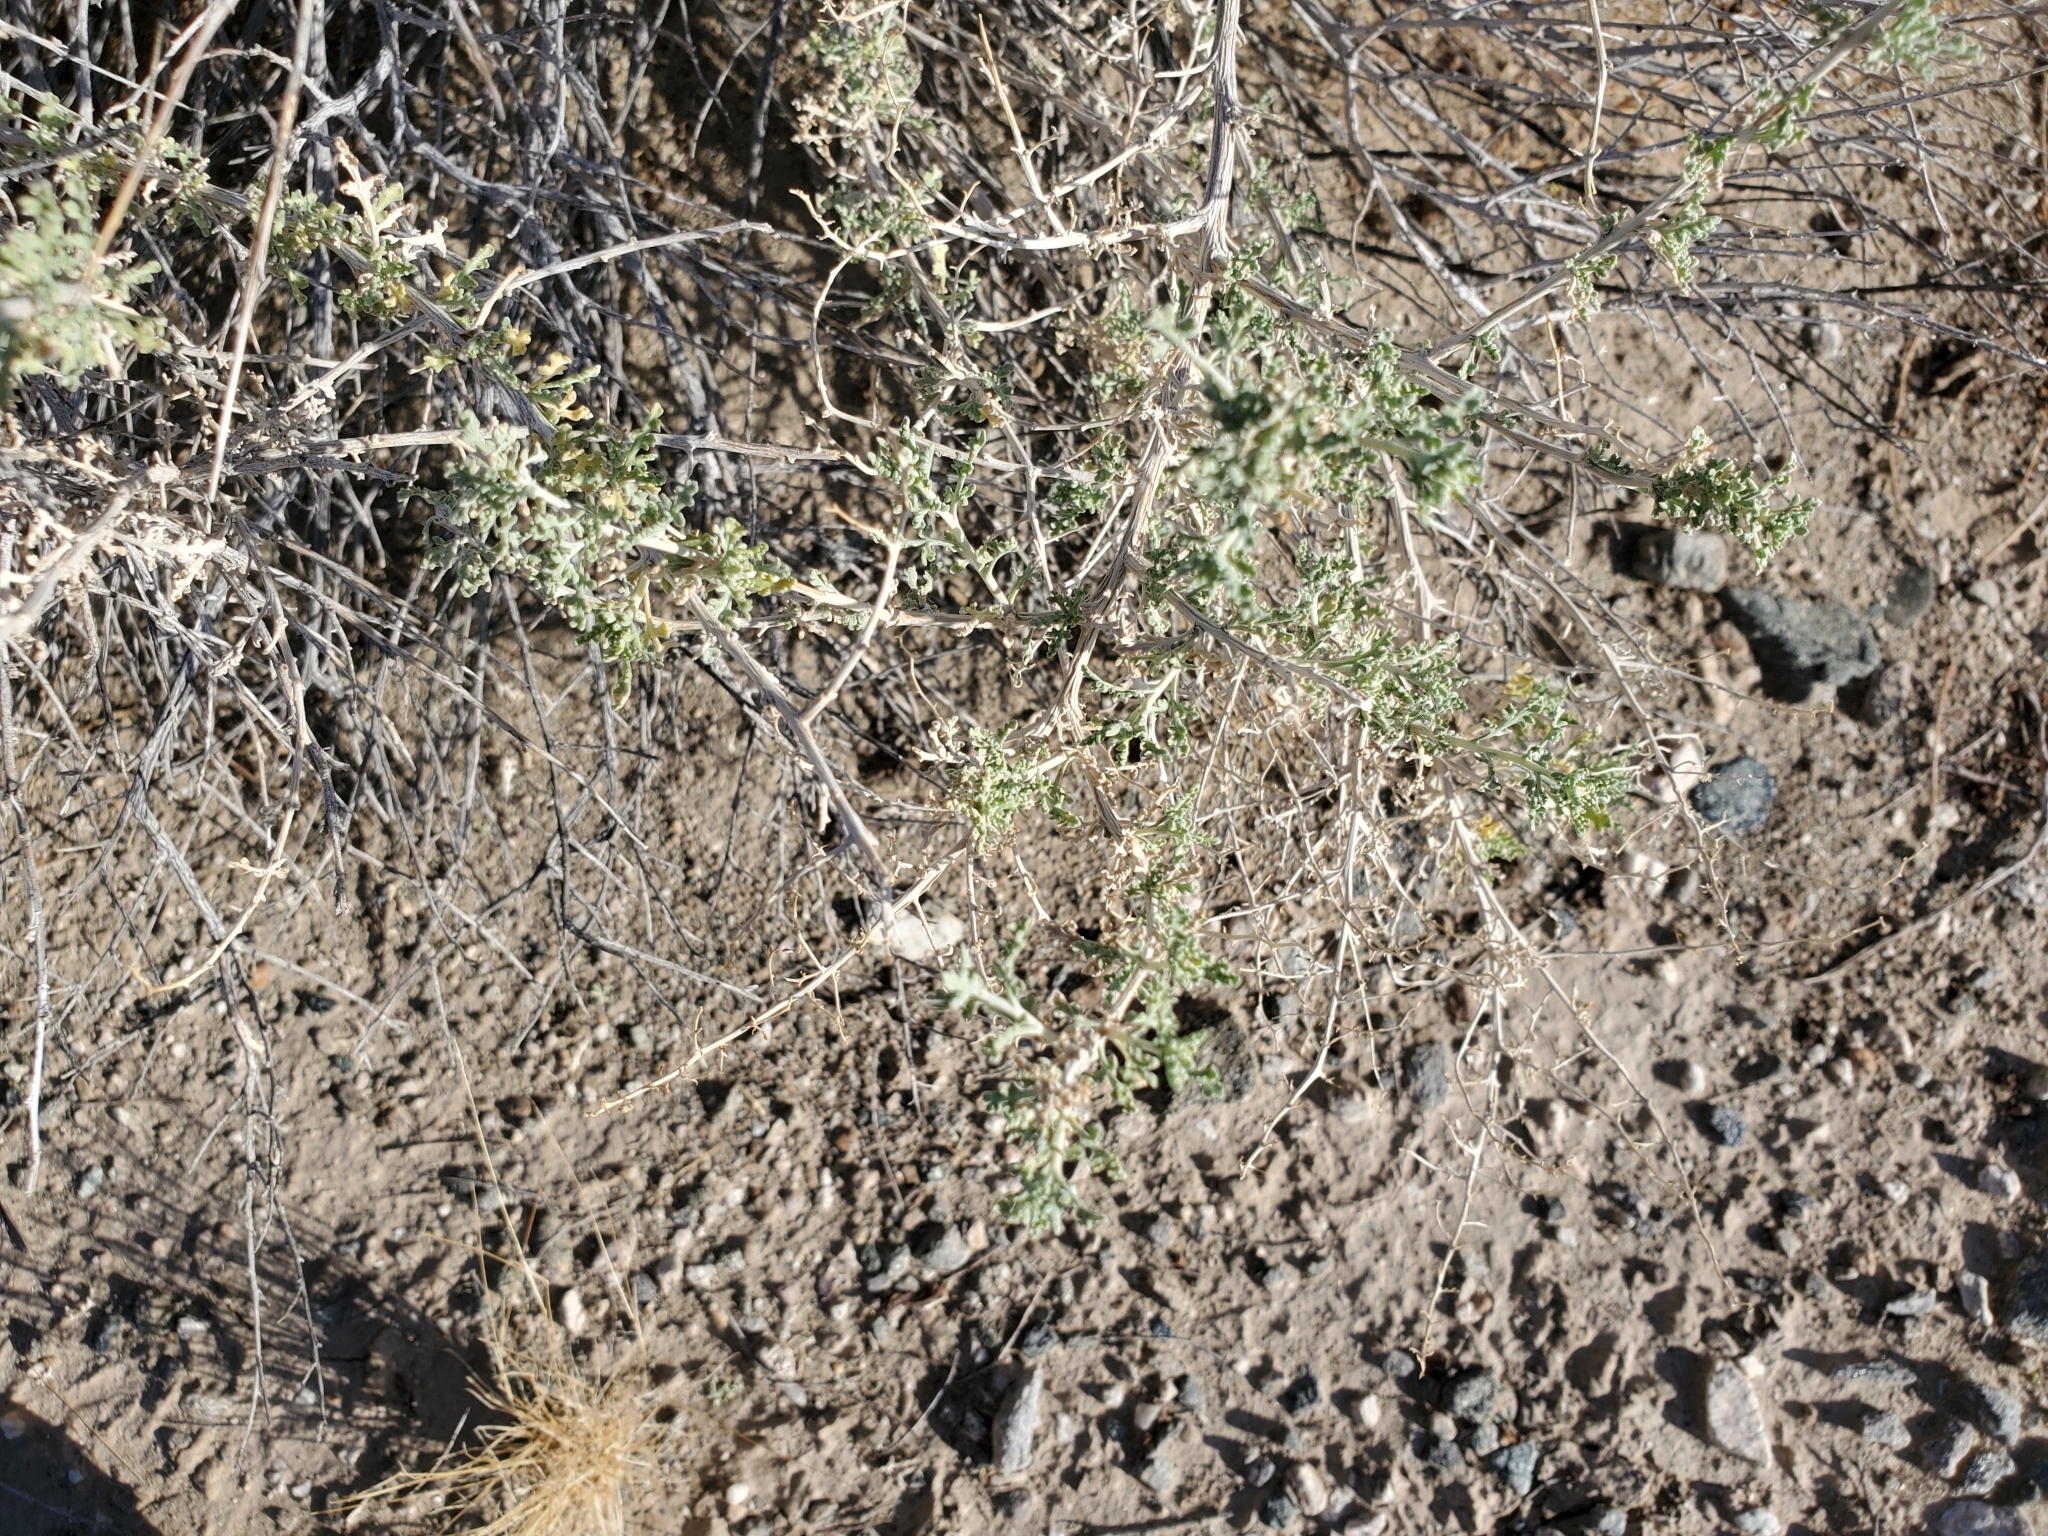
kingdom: Plantae
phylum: Tracheophyta
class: Magnoliopsida
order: Asterales
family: Asteraceae
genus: Ambrosia
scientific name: Ambrosia dumosa
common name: Bur-sage
